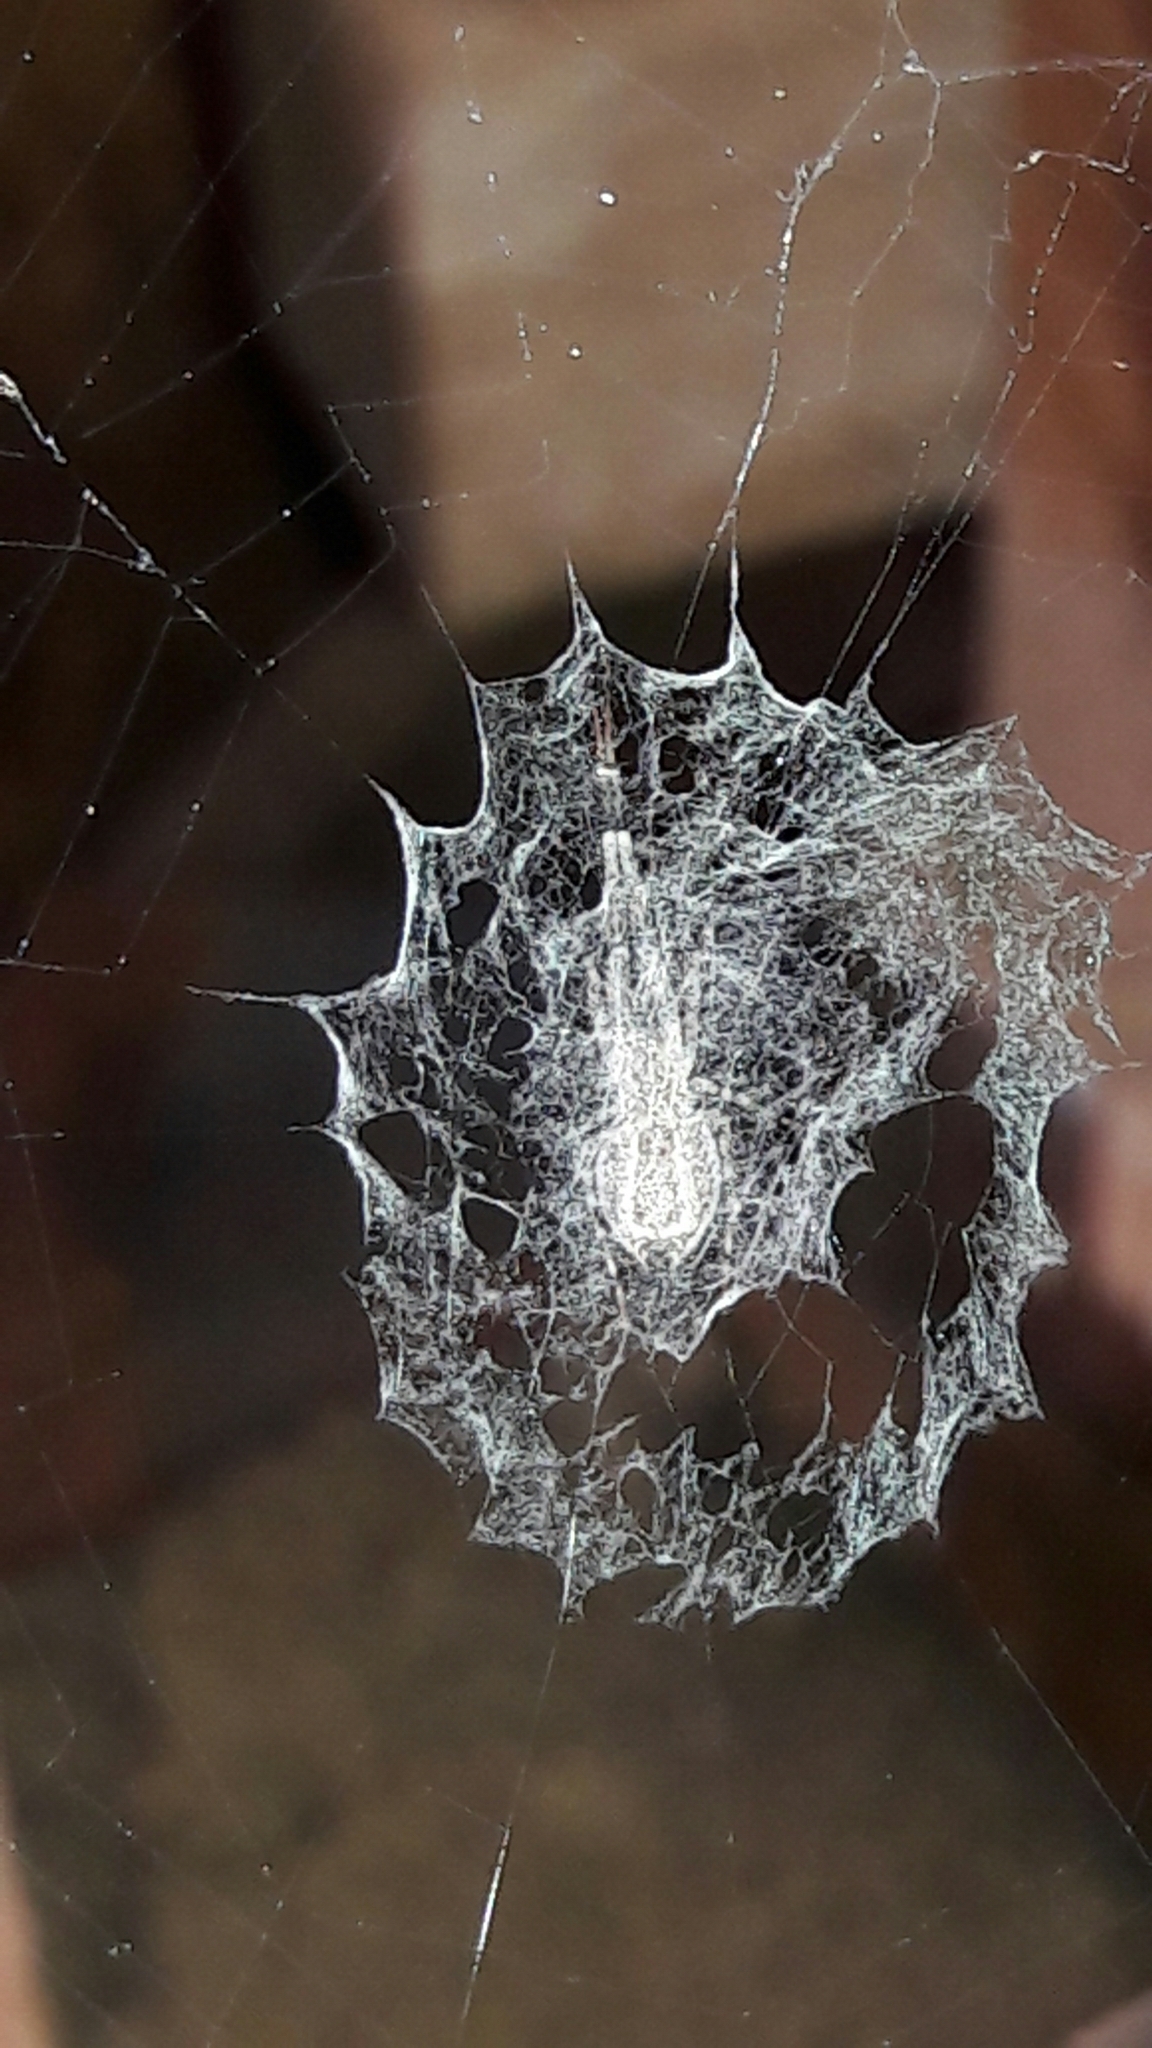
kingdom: Animalia
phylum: Arthropoda
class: Arachnida
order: Araneae
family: Uloboridae
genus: Zosis
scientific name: Zosis geniculata
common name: Hackled orb weavers
